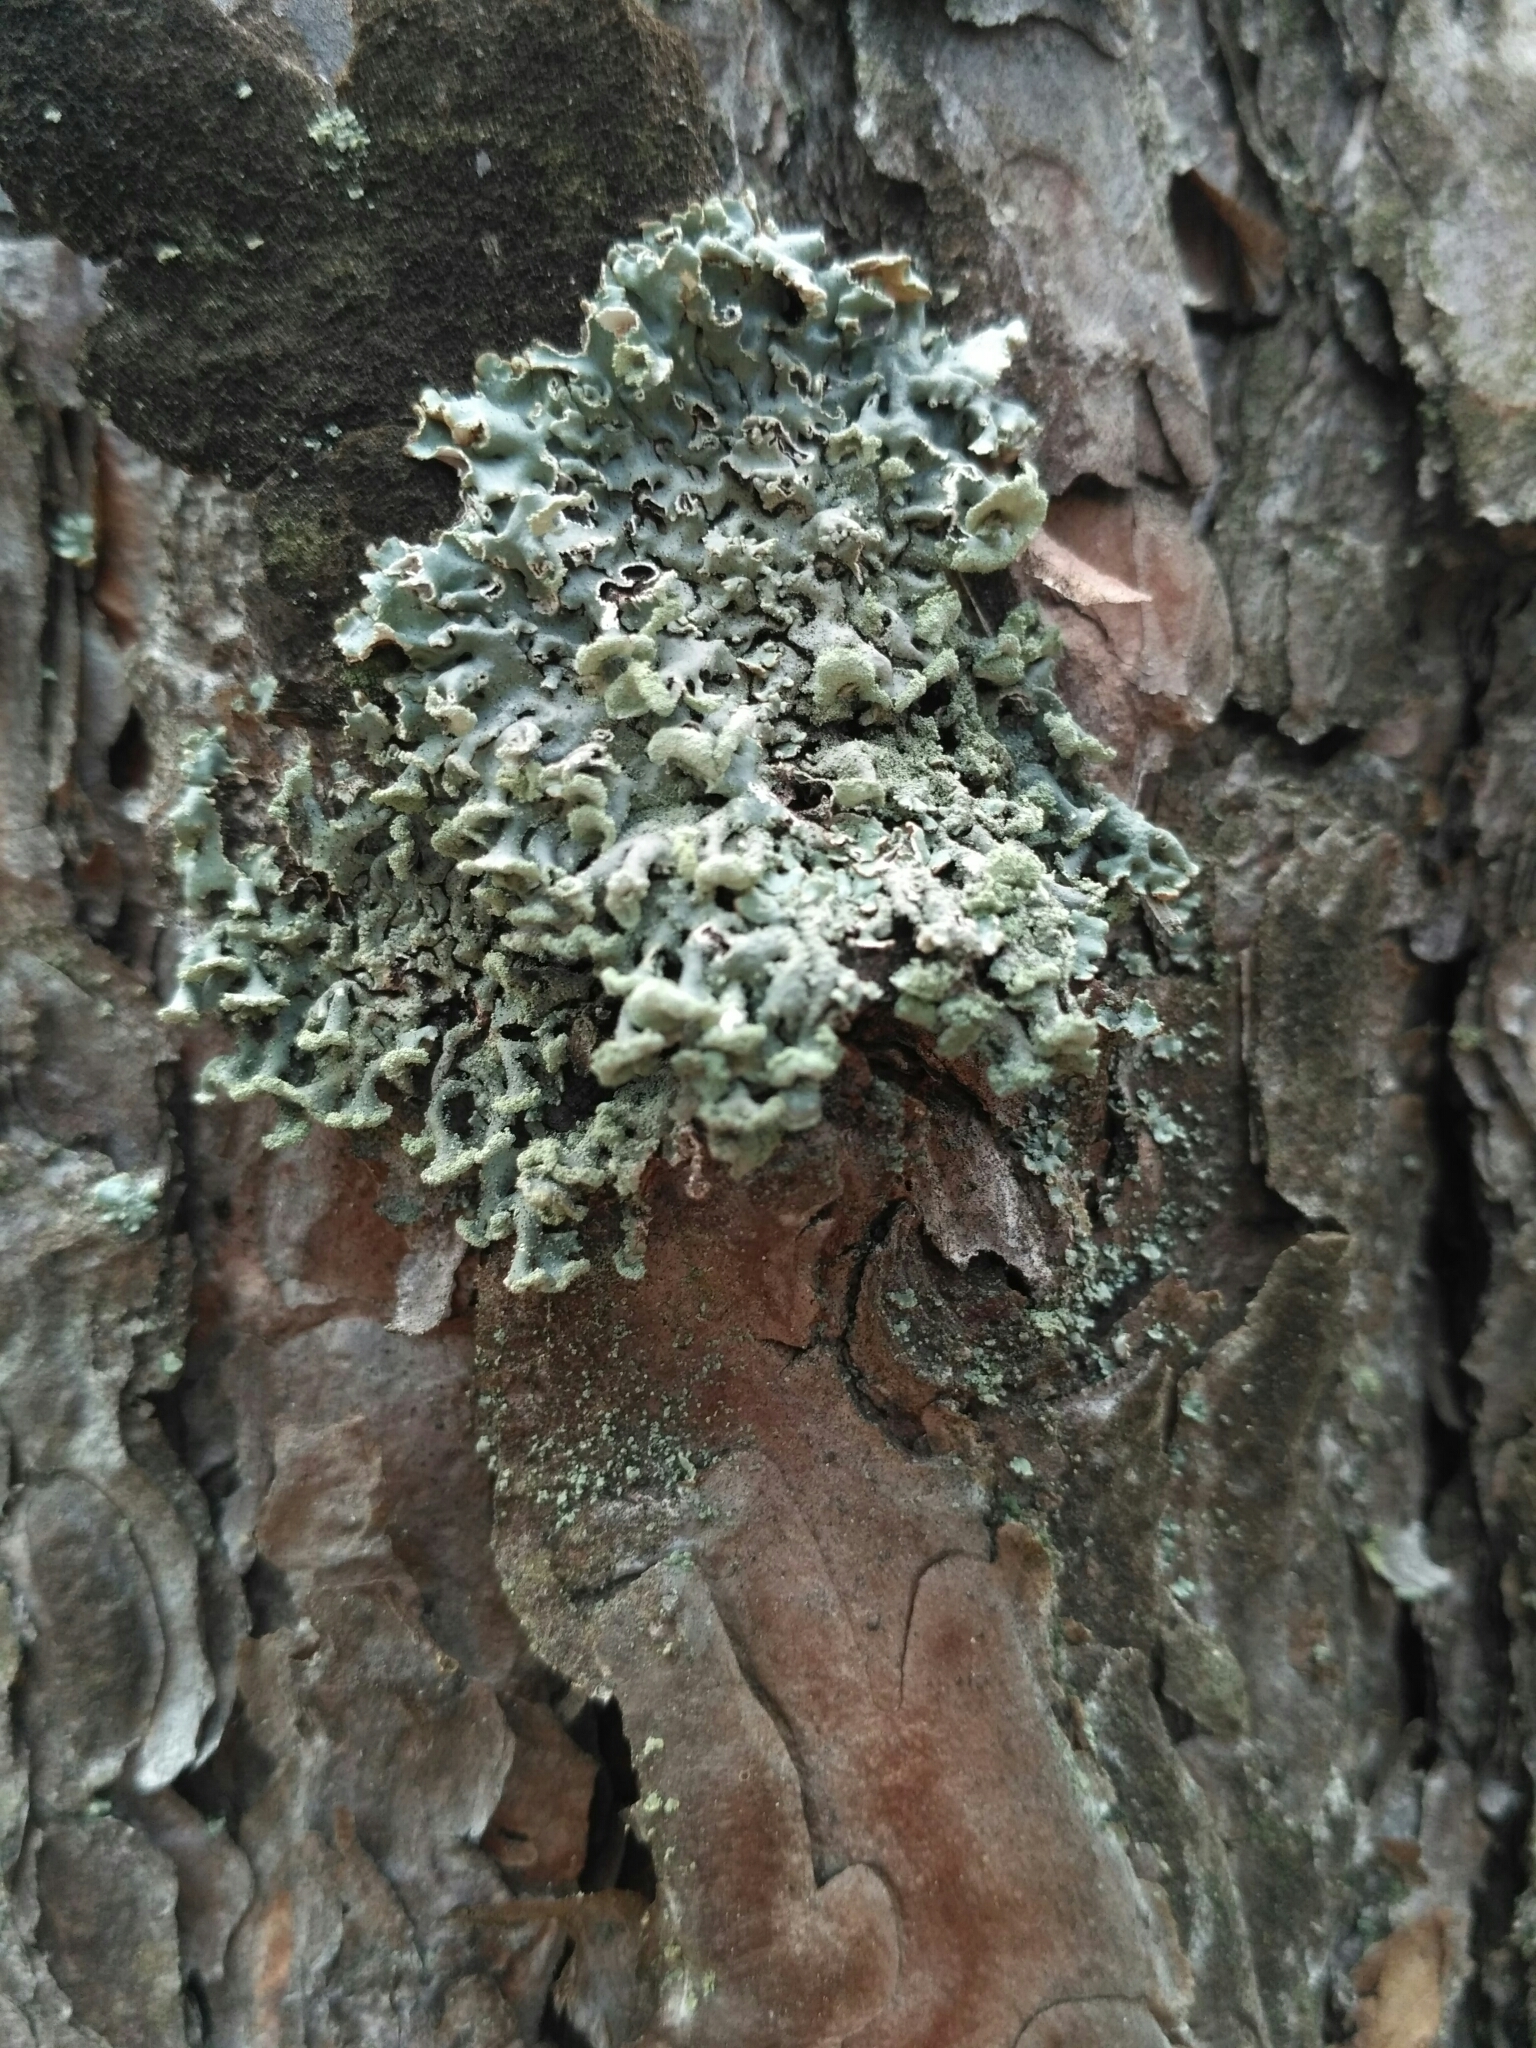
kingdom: Fungi
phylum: Ascomycota
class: Lecanoromycetes
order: Lecanorales
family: Parmeliaceae
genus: Hypogymnia
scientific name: Hypogymnia physodes
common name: Dark crottle
